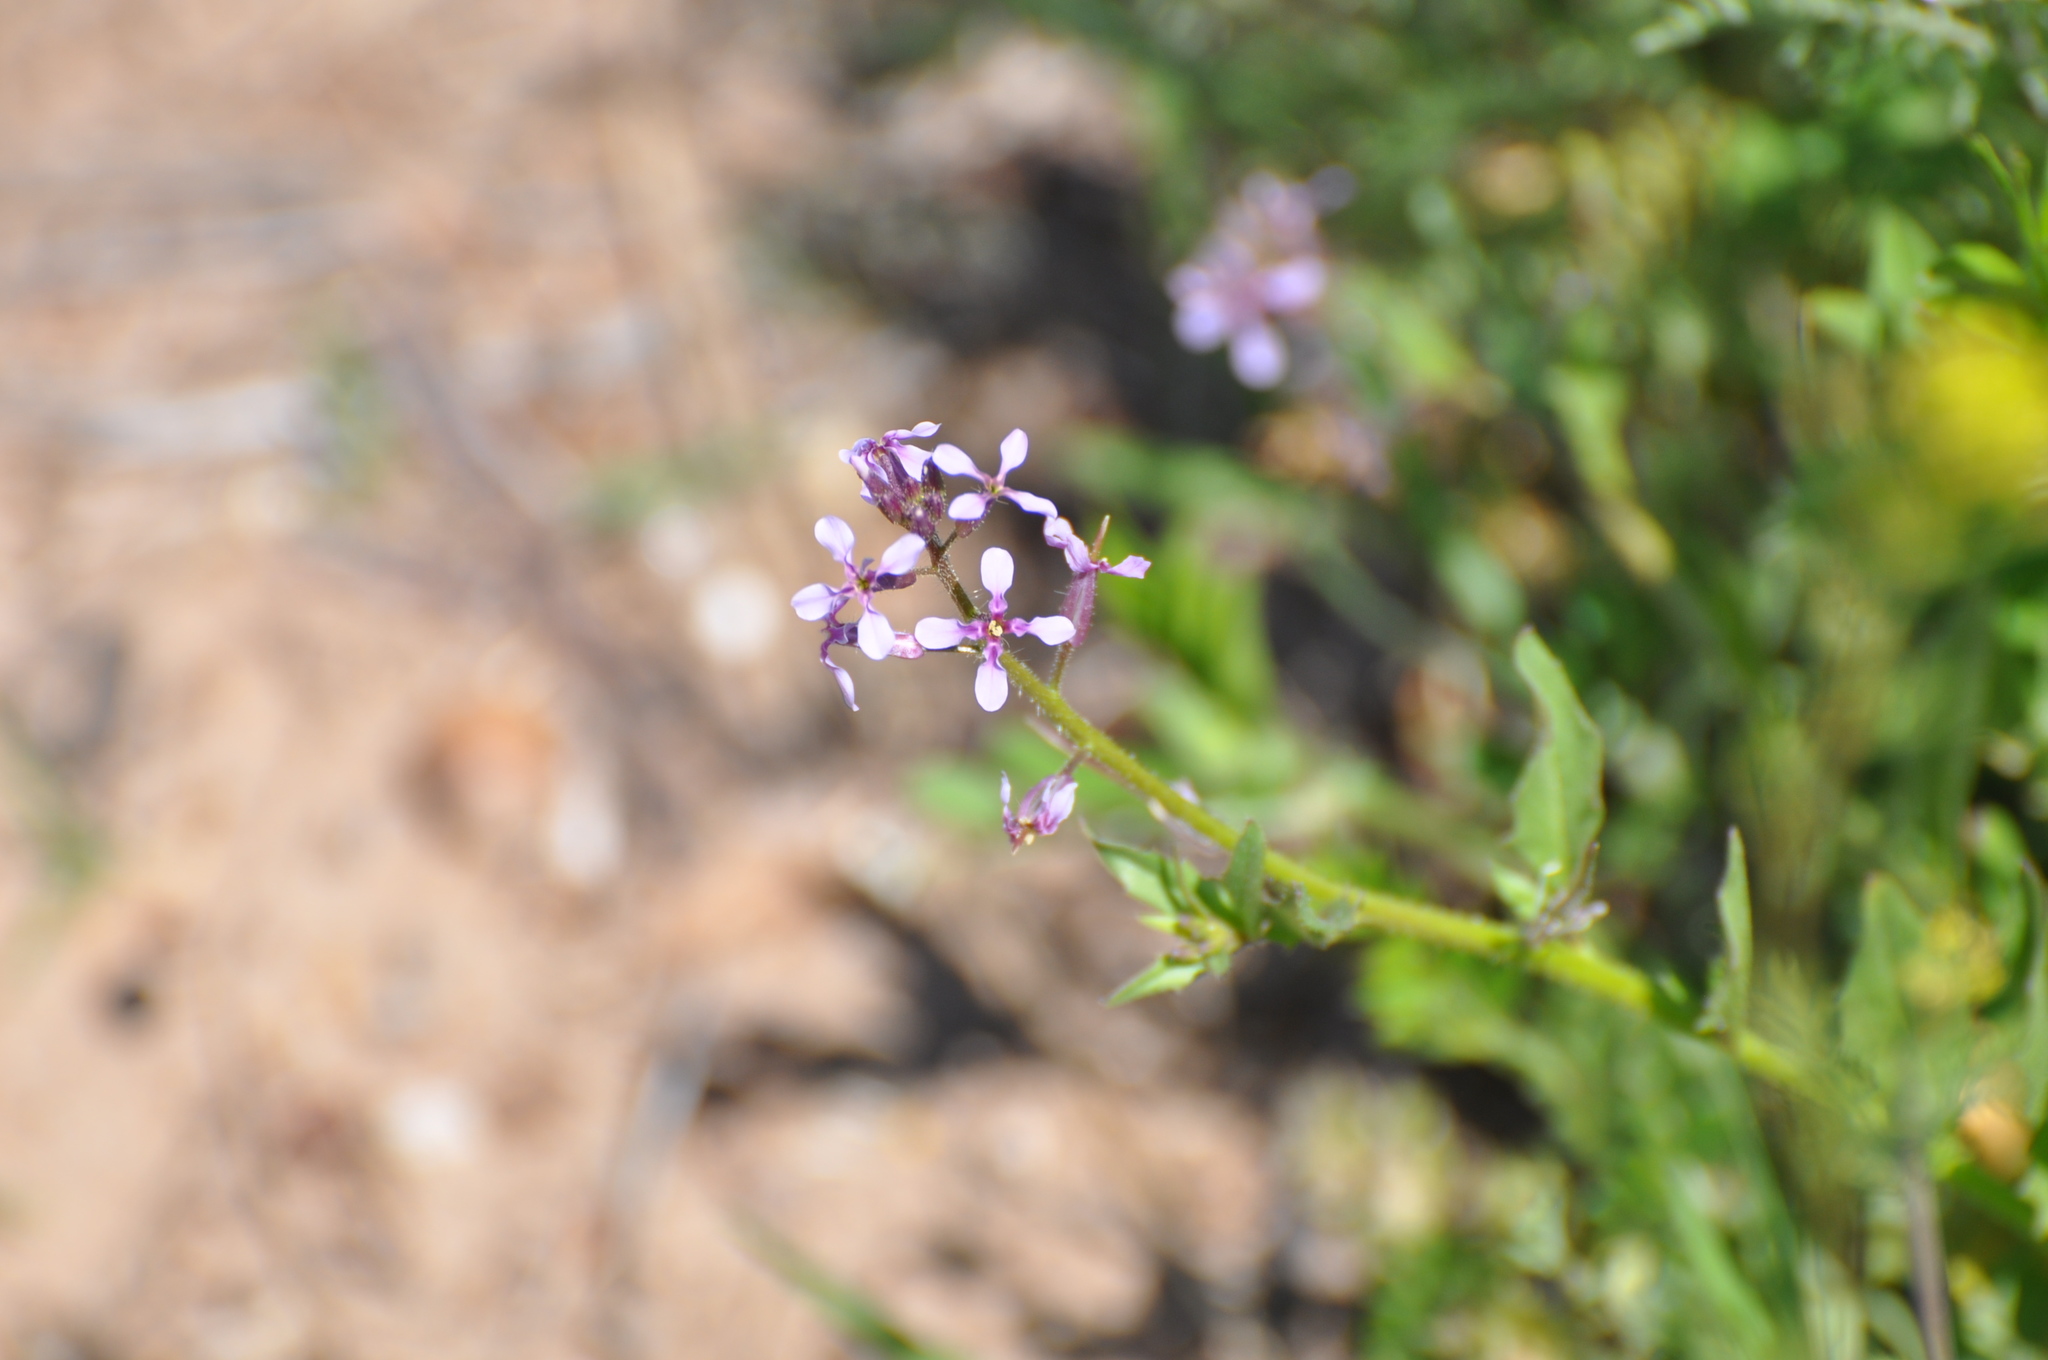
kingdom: Plantae
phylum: Tracheophyta
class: Magnoliopsida
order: Brassicales
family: Brassicaceae
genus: Chorispora
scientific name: Chorispora tenella
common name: Crossflower
